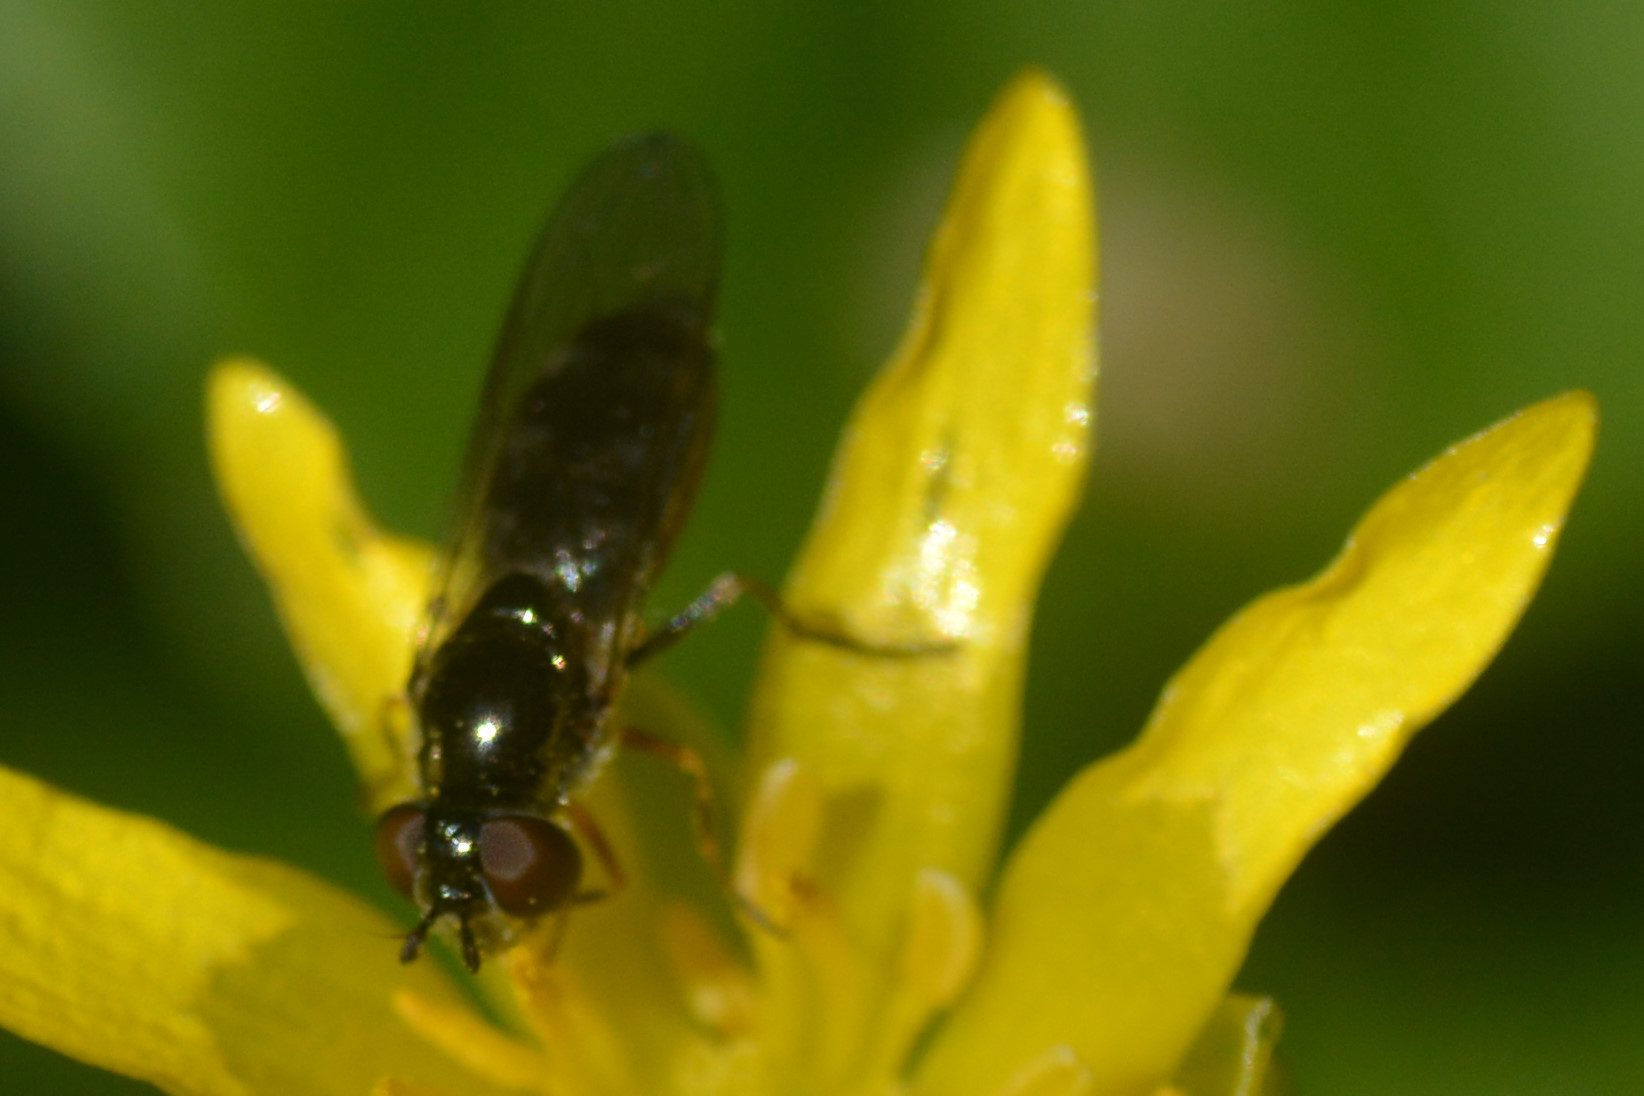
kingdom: Animalia
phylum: Arthropoda
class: Insecta
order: Diptera
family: Syrphidae
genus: Platycheirus
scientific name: Platycheirus albimanus
